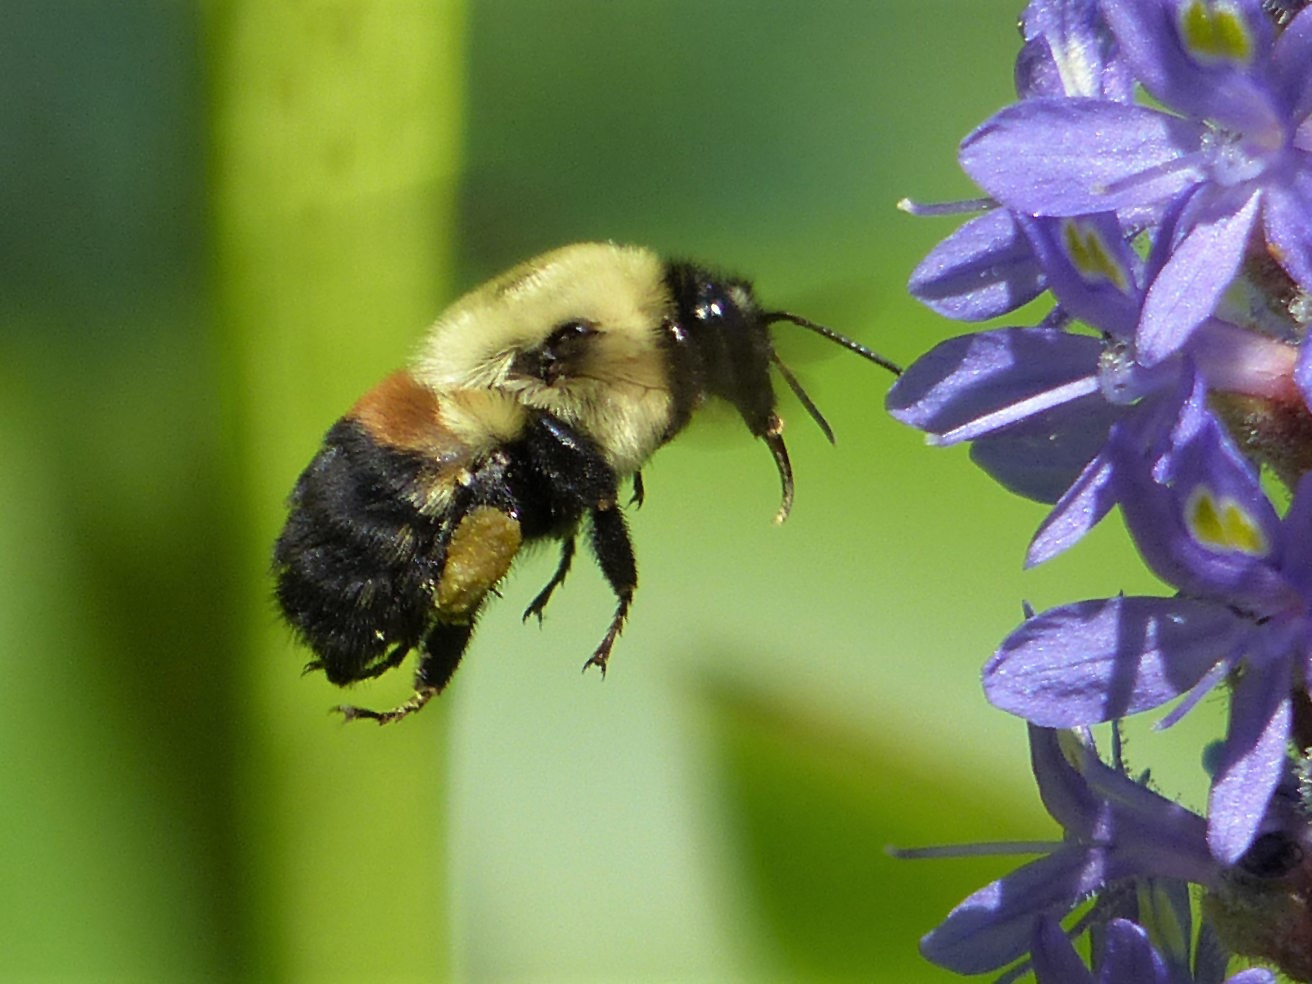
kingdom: Animalia
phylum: Arthropoda
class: Insecta
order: Hymenoptera
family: Apidae
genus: Bombus
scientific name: Bombus griseocollis
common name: Brown-belted bumble bee
